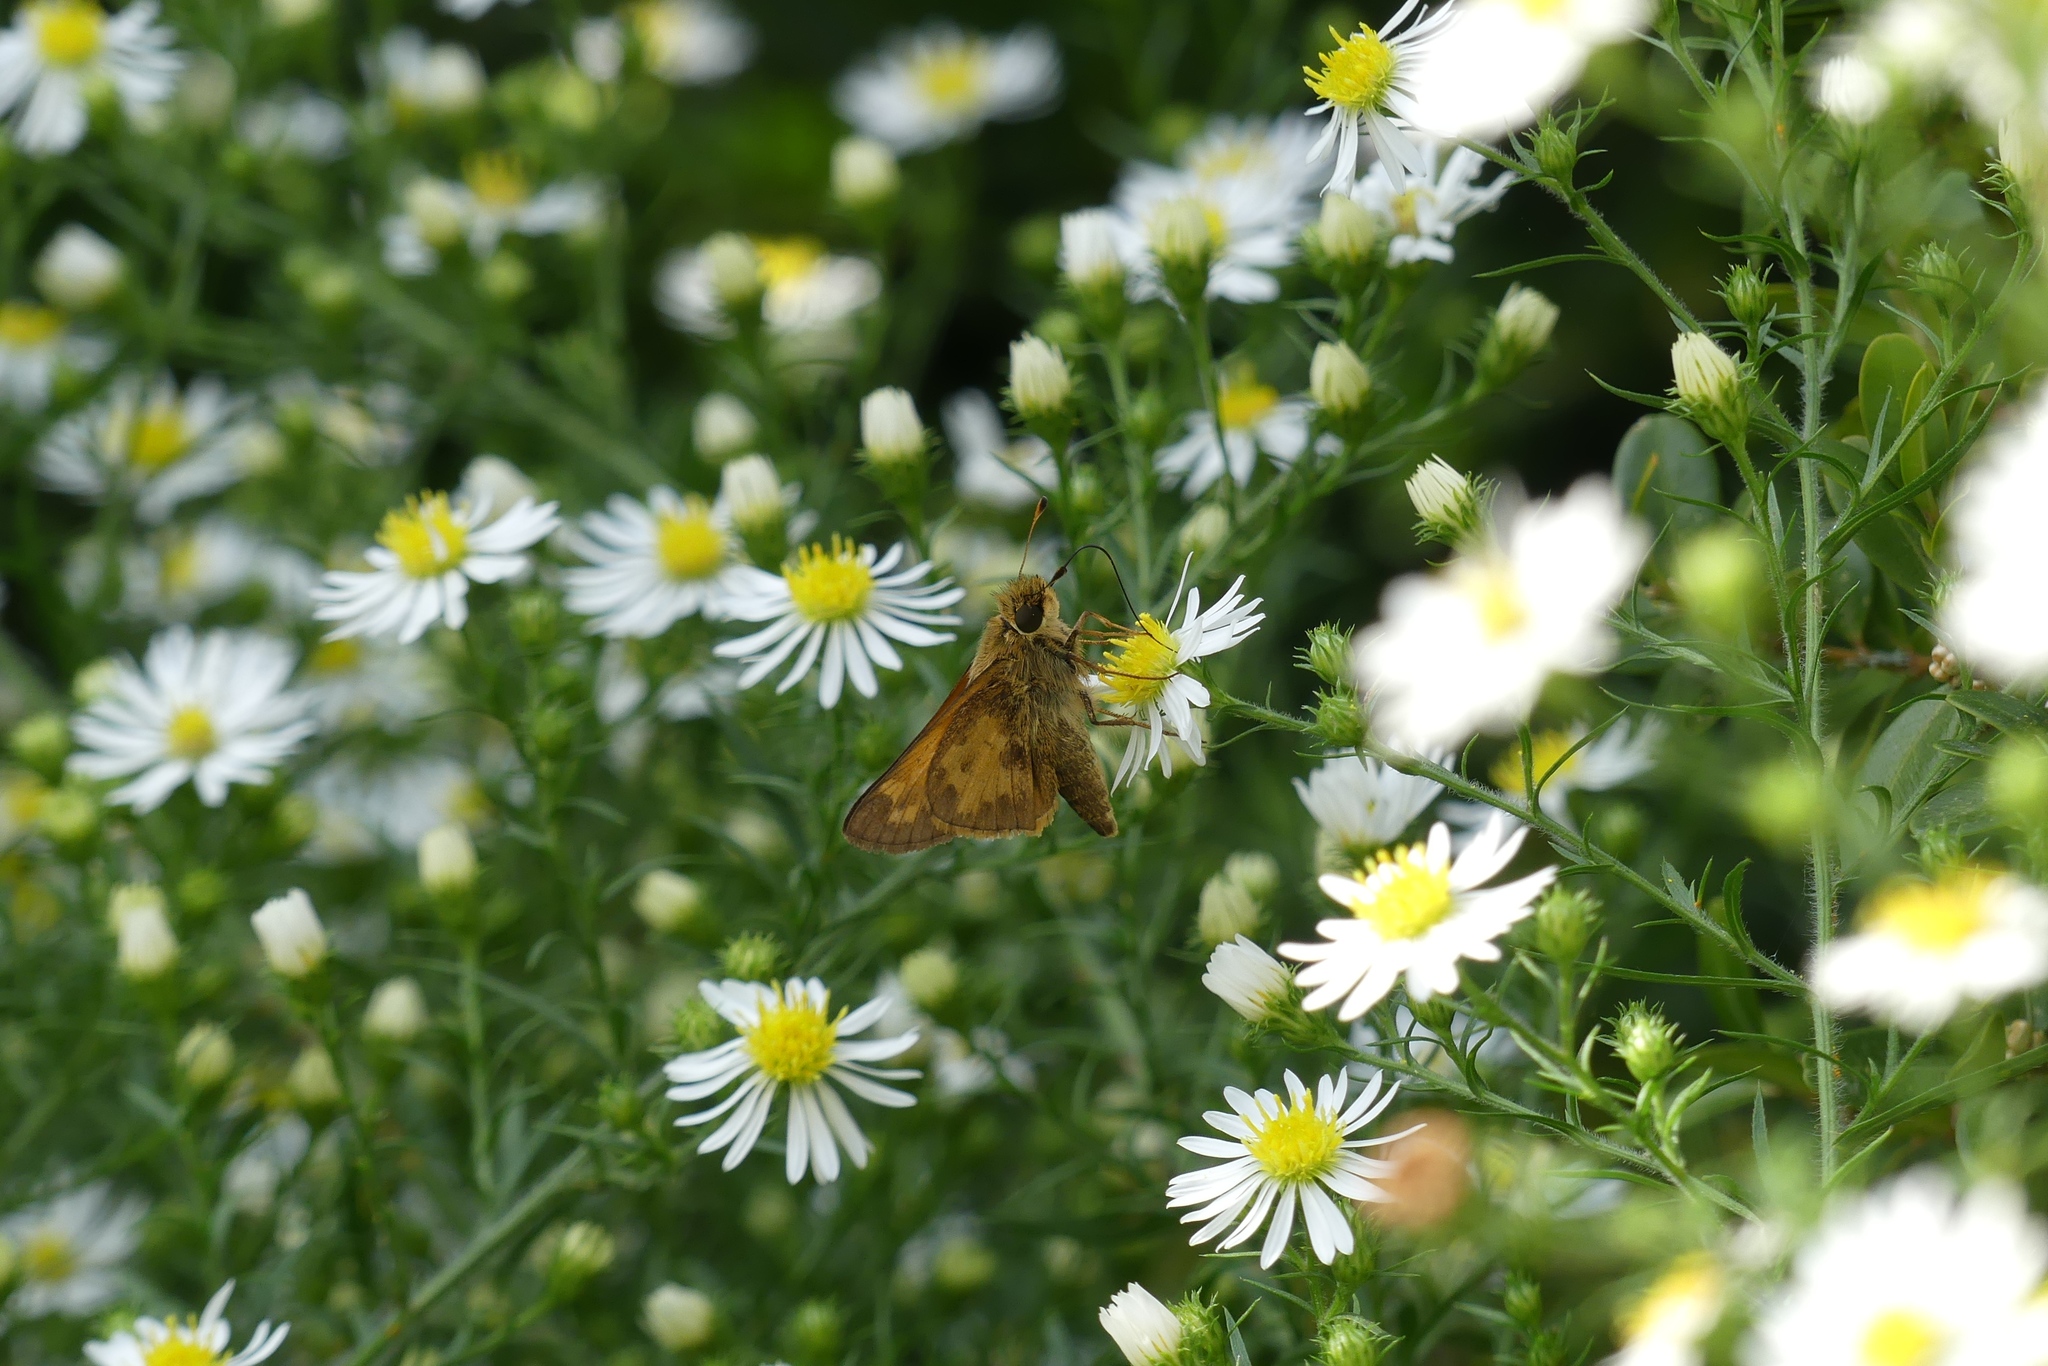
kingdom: Animalia
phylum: Arthropoda
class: Insecta
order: Lepidoptera
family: Hesperiidae
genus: Atalopedes
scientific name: Atalopedes
